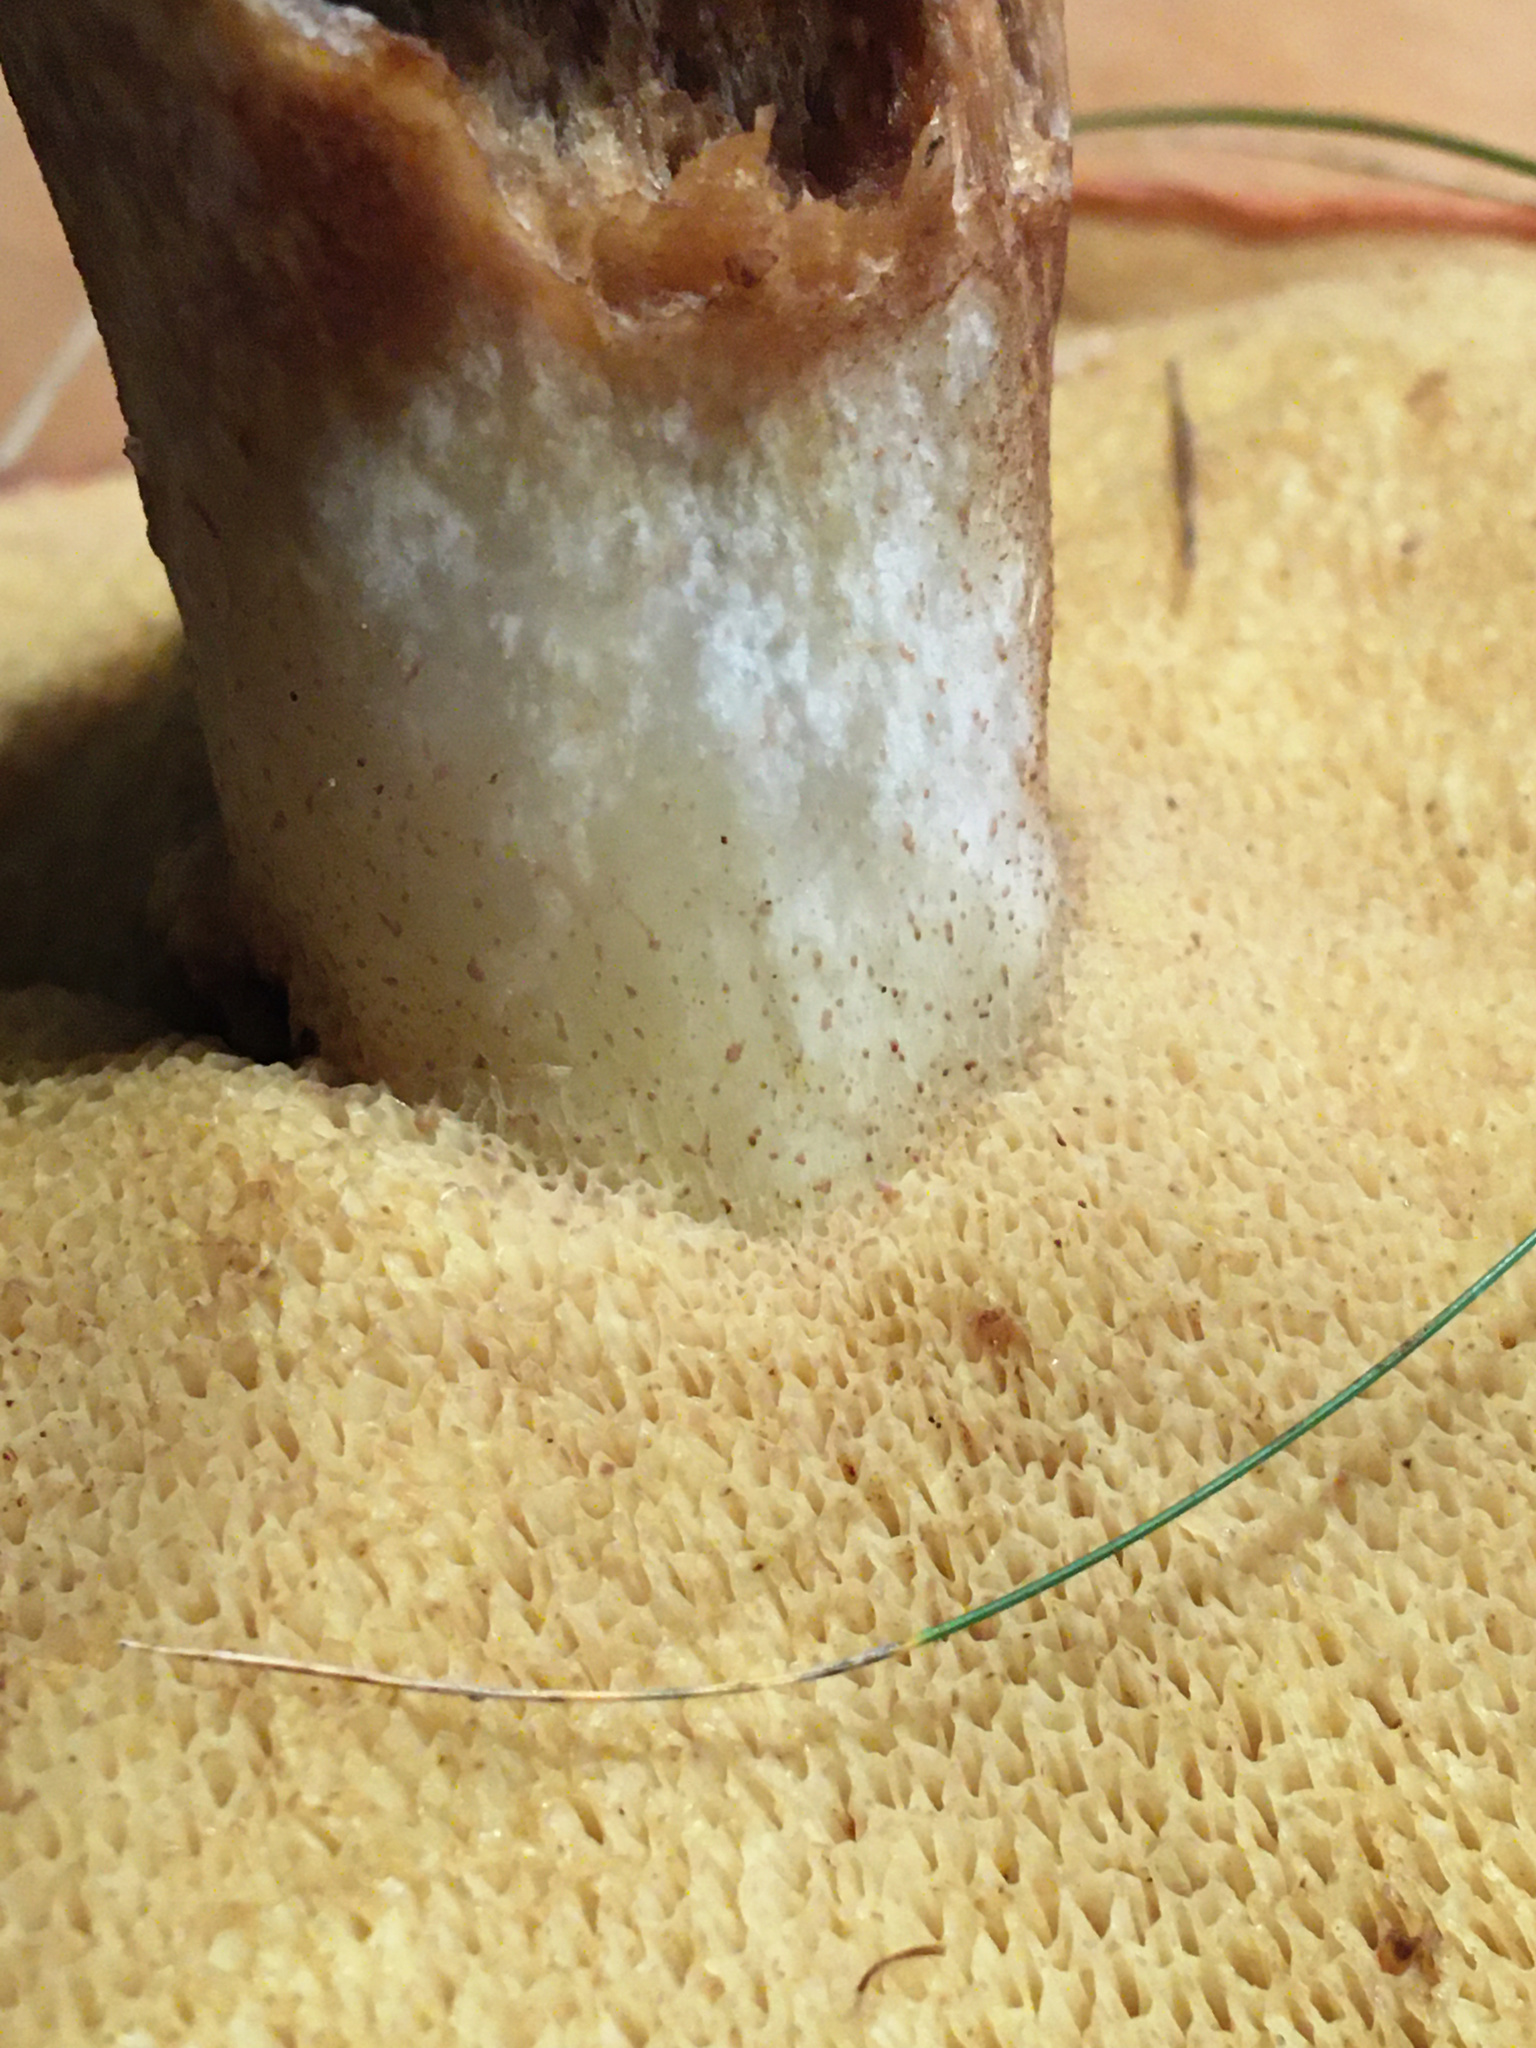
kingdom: Fungi
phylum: Basidiomycota
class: Agaricomycetes
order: Boletales
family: Suillaceae
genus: Fuscoboletinus
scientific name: Fuscoboletinus weaverae
